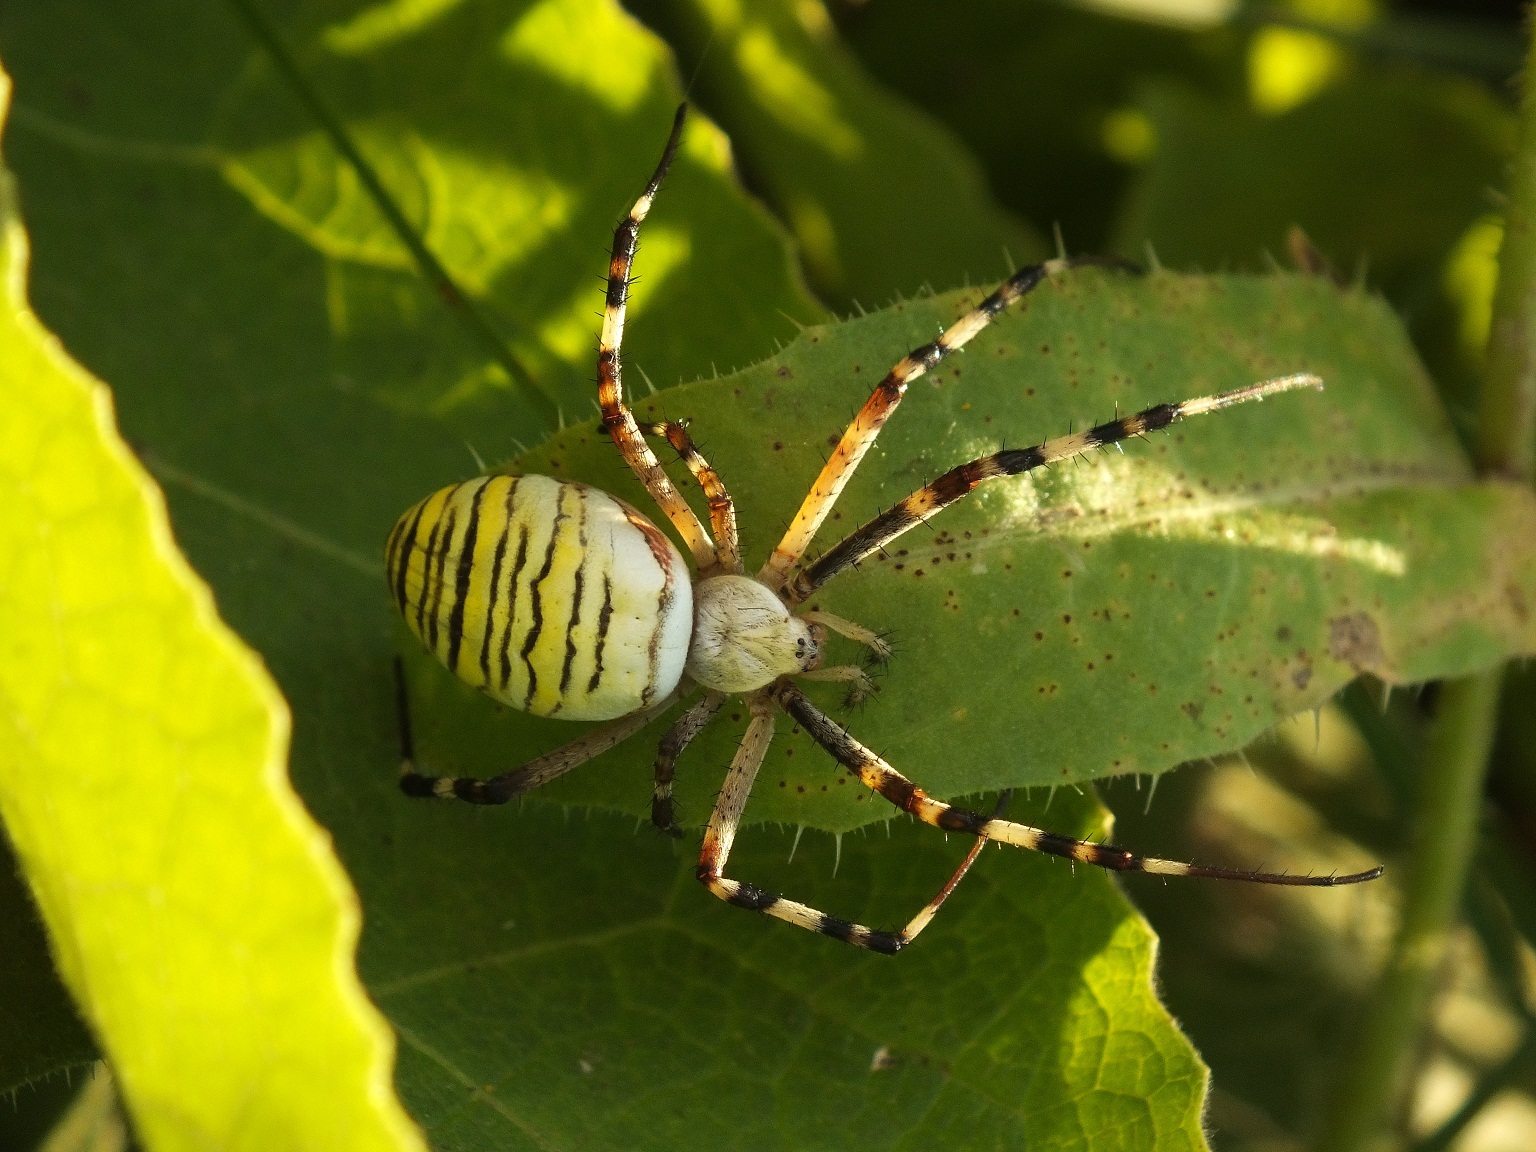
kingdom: Animalia
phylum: Arthropoda
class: Arachnida
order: Araneae
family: Araneidae
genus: Argiope
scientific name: Argiope bruennichi
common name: Wasp spider
